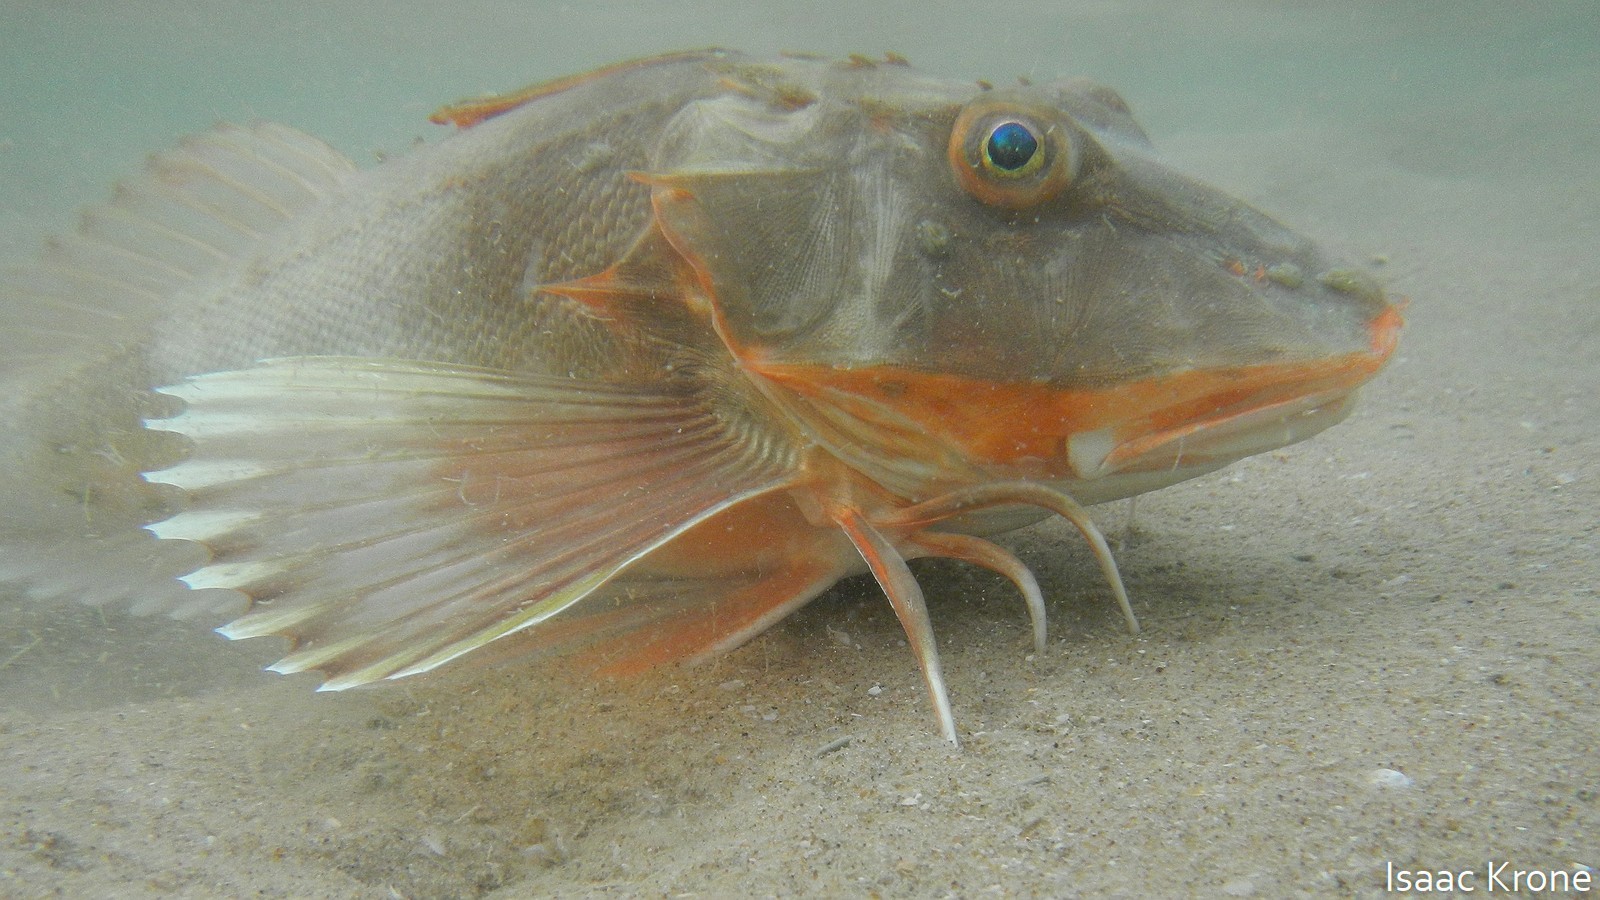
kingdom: Animalia
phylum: Chordata
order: Scorpaeniformes
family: Triglidae
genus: Prionotus
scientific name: Prionotus horrens
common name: Bristly searobin
